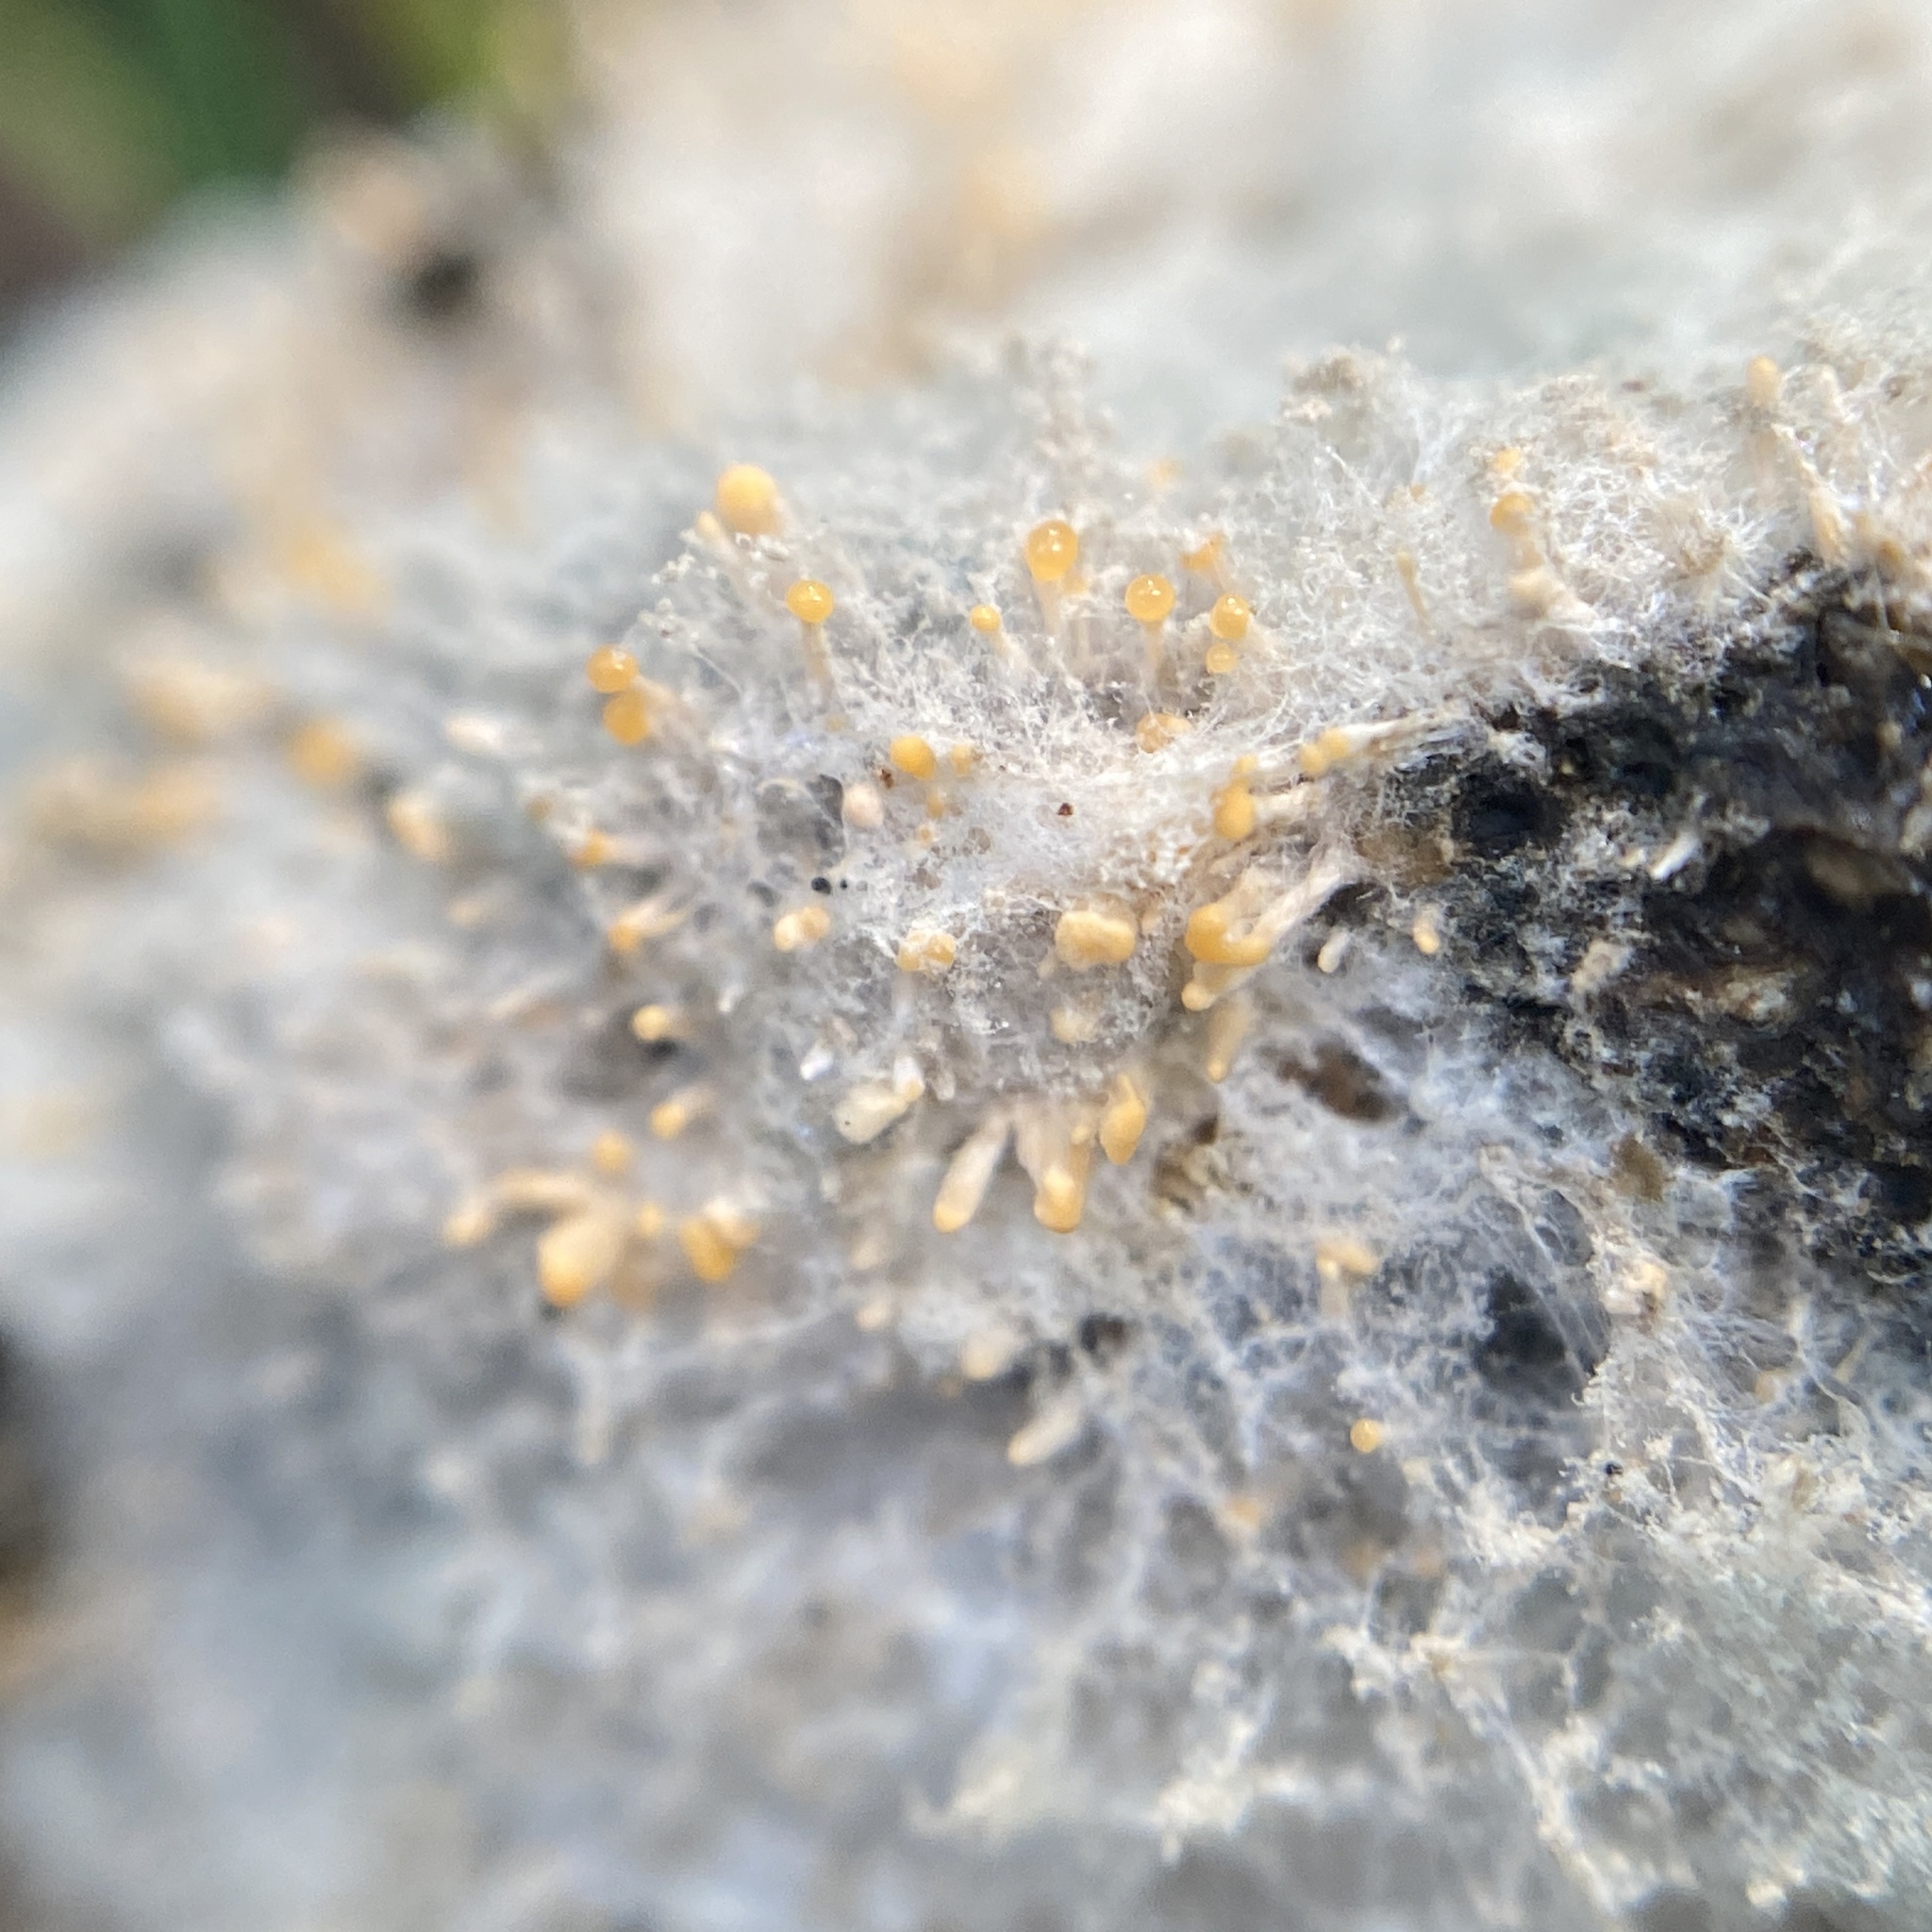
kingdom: Fungi
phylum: Ascomycota
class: Sordariomycetes
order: Hypocreales
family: Myrotheciomycetaceae
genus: Emericellopsis
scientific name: Emericellopsis
